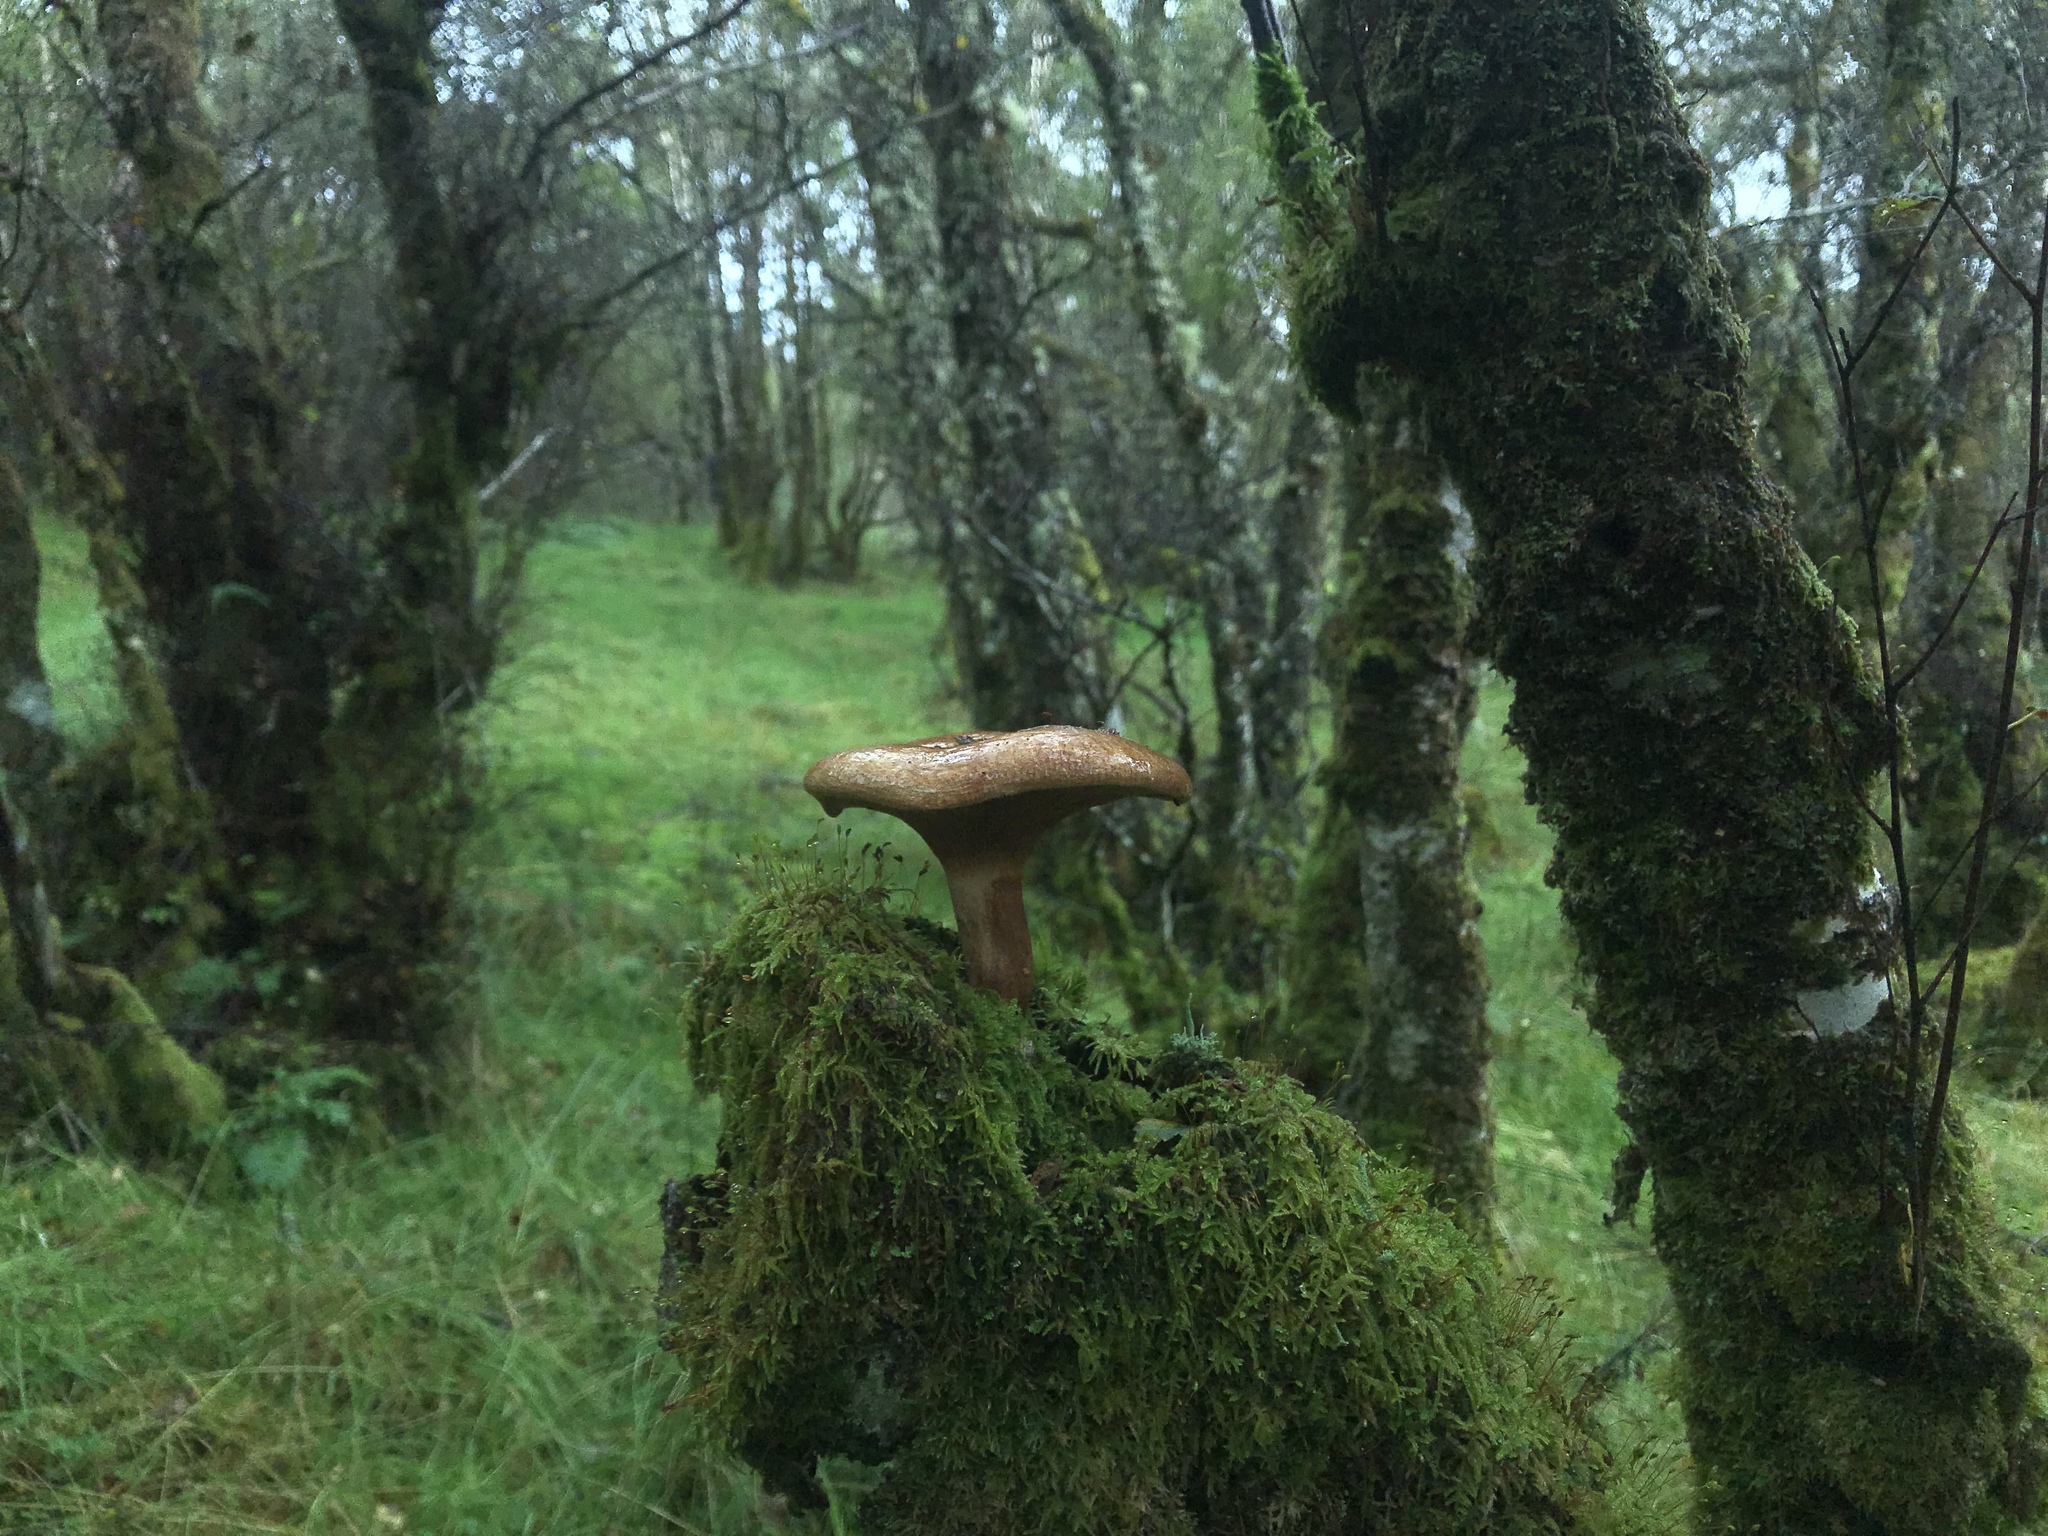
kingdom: Fungi
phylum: Basidiomycota
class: Agaricomycetes
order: Boletales
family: Paxillaceae
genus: Paxillus
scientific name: Paxillus involutus
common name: Brown roll rim
